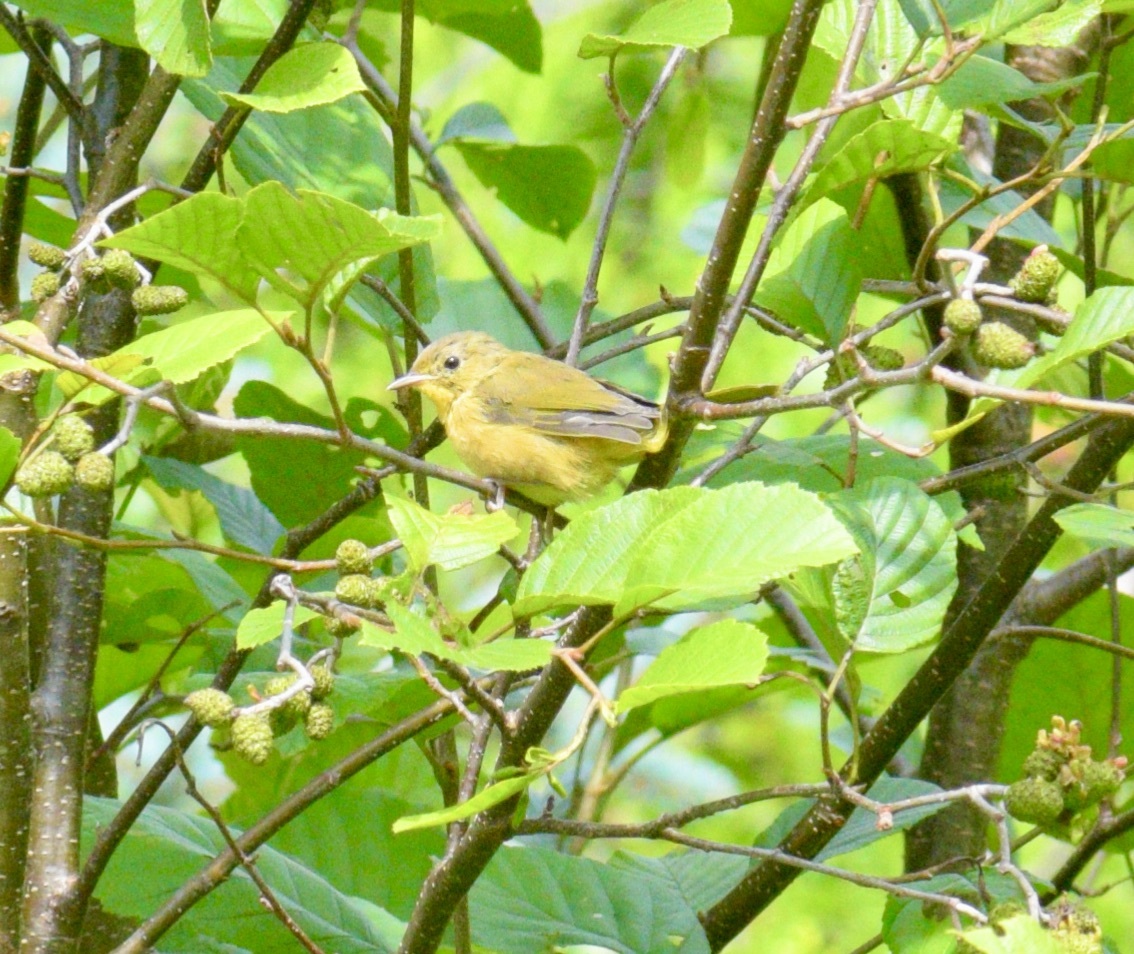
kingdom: Animalia
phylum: Chordata
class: Aves
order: Passeriformes
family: Parulidae
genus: Geothlypis
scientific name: Geothlypis trichas
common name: Common yellowthroat
